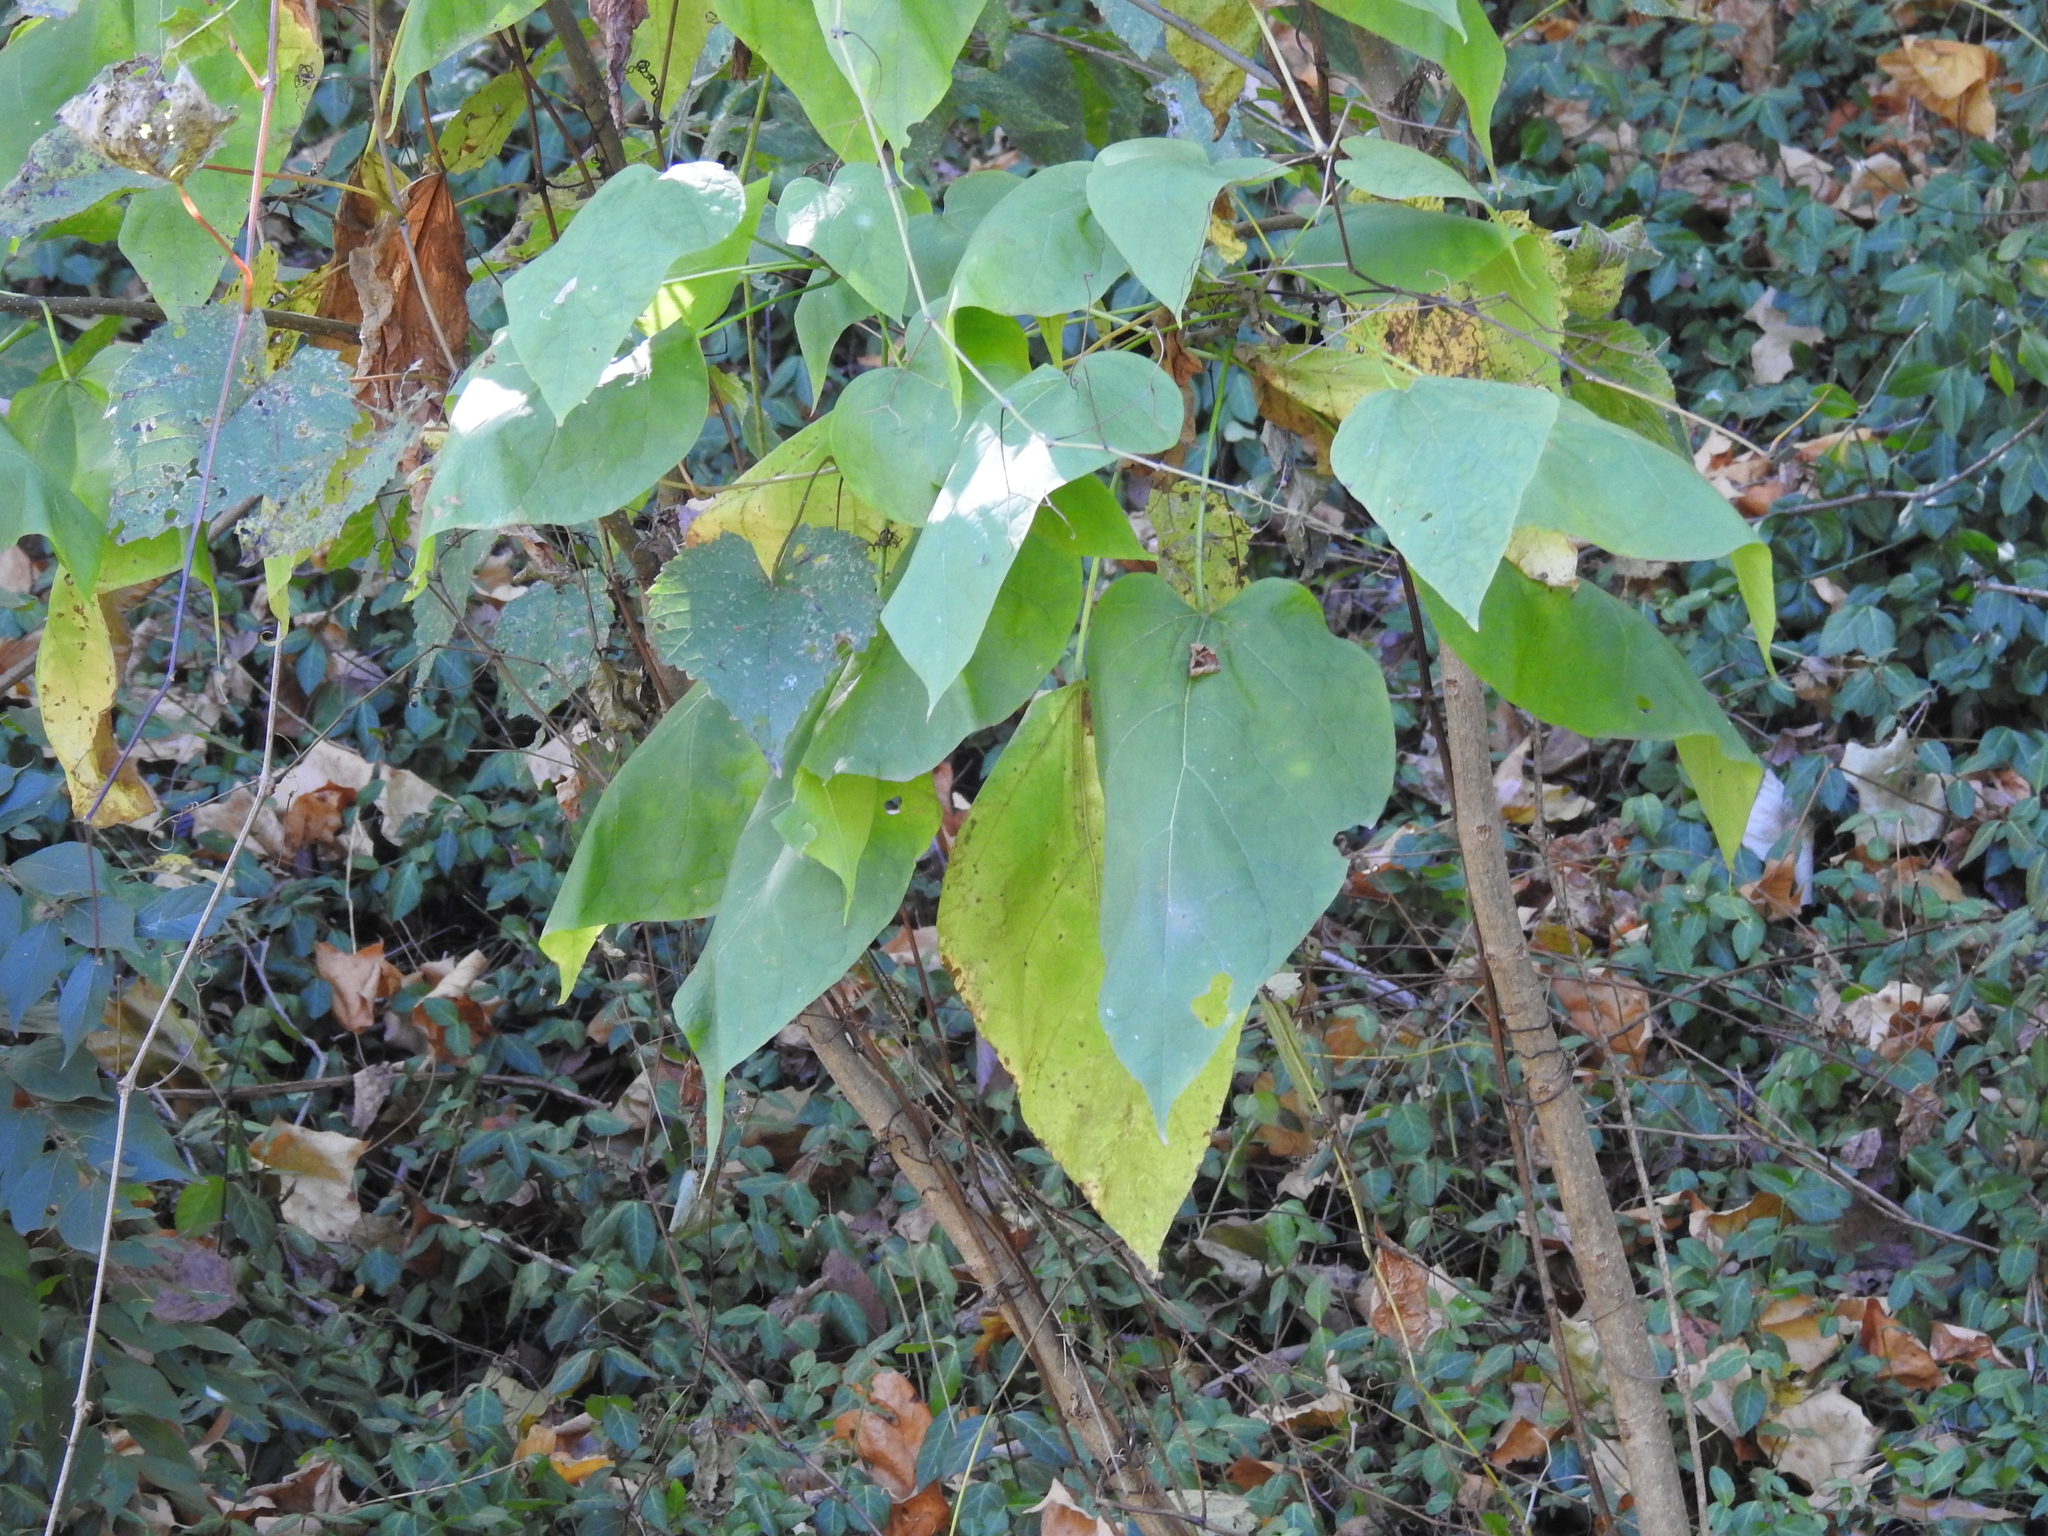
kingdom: Plantae
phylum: Tracheophyta
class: Magnoliopsida
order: Lamiales
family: Bignoniaceae
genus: Catalpa
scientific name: Catalpa speciosa
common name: Northern catalpa
